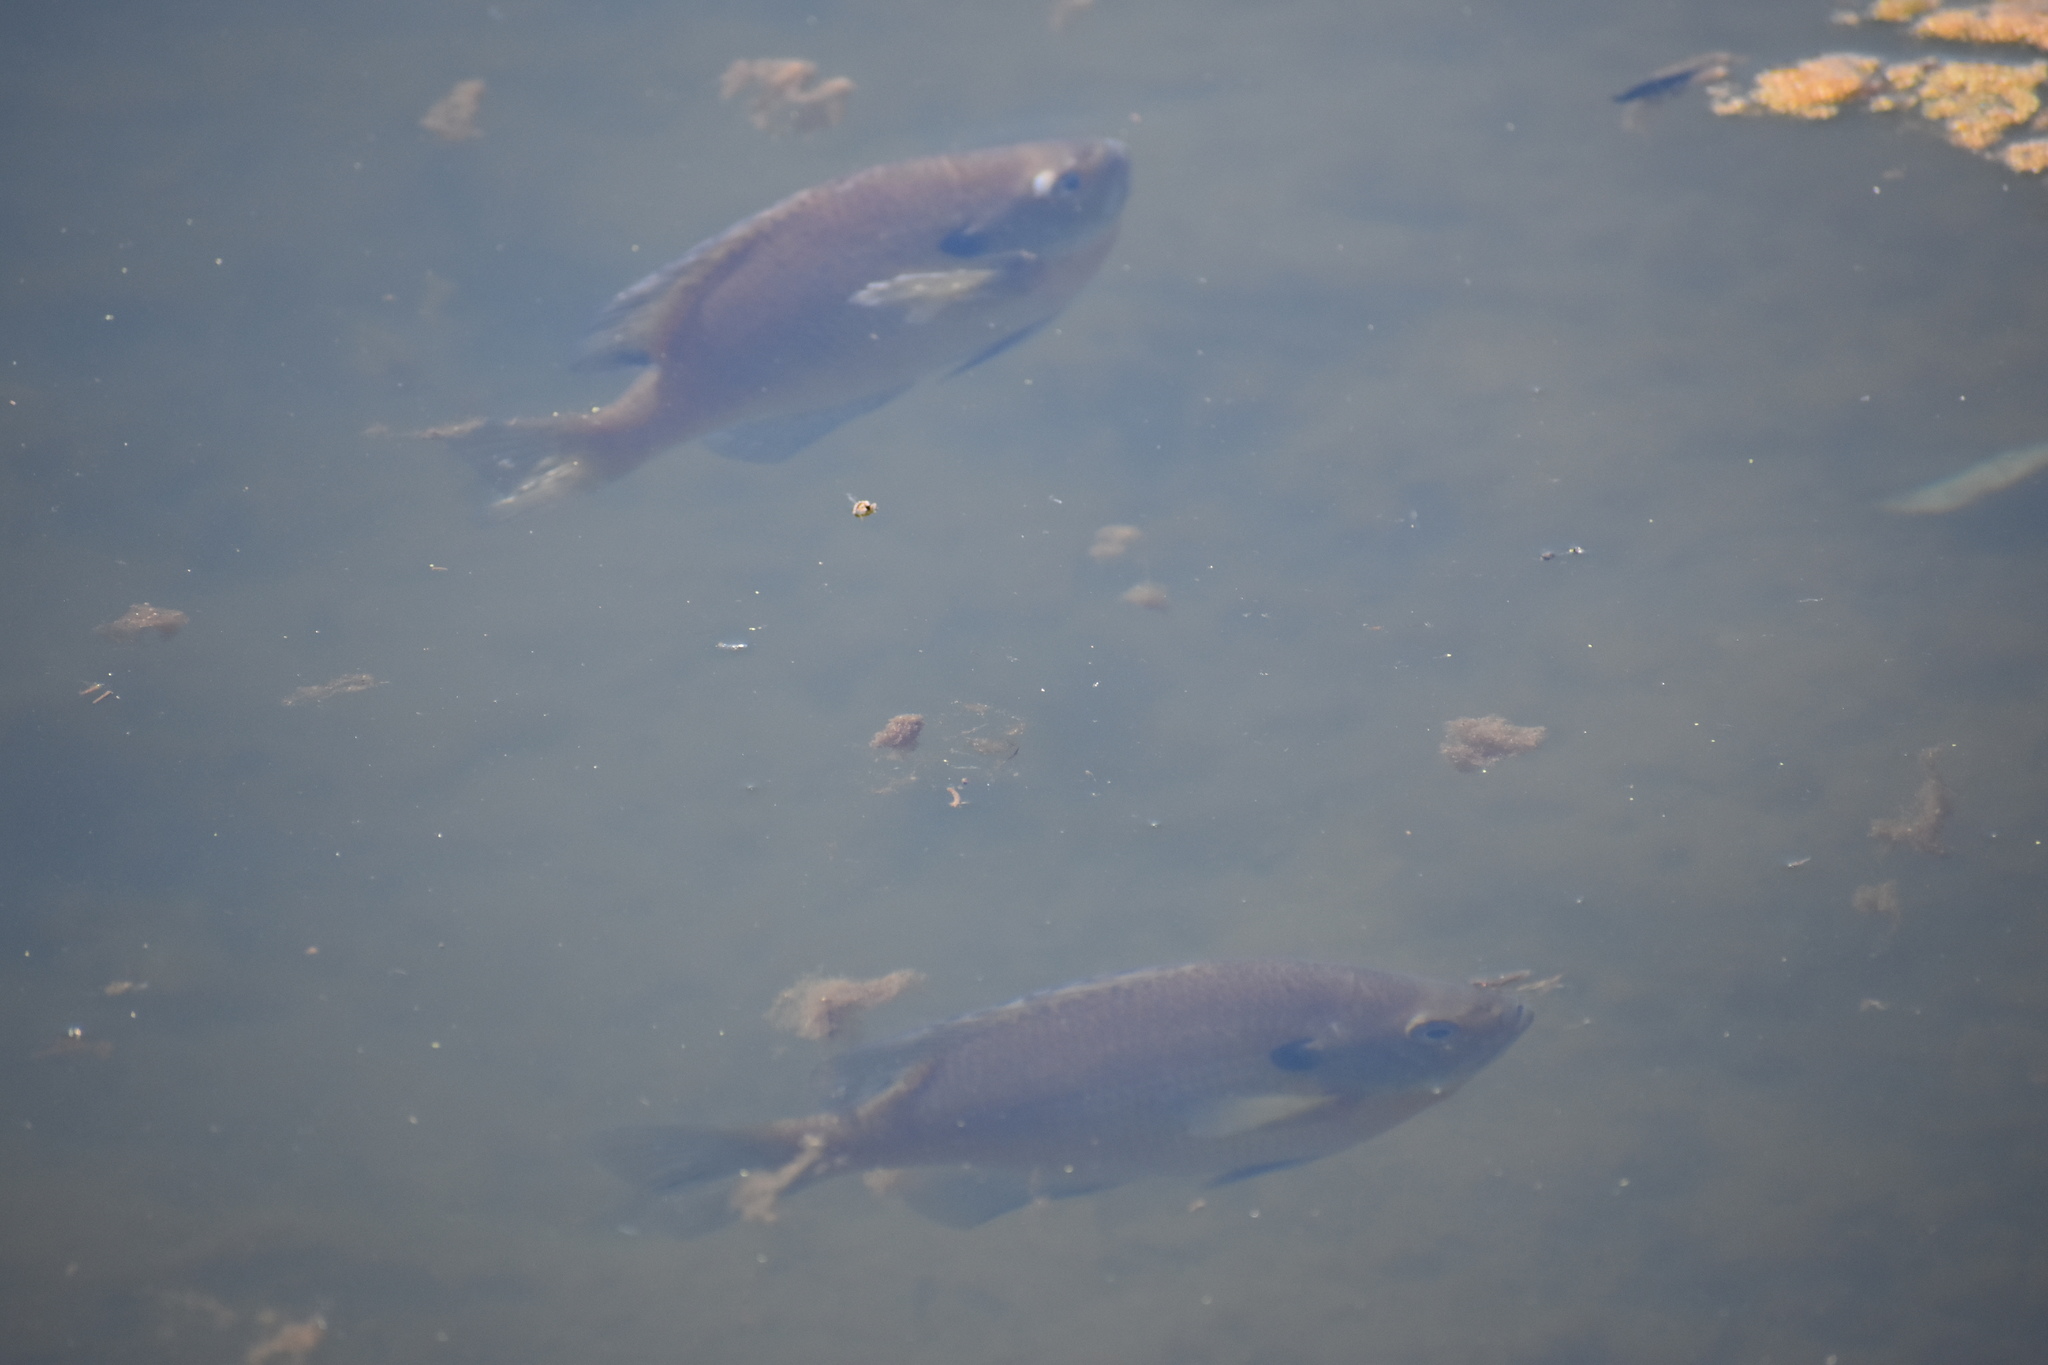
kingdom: Animalia
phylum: Chordata
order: Perciformes
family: Centrarchidae
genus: Lepomis
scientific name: Lepomis macrochirus
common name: Bluegill
